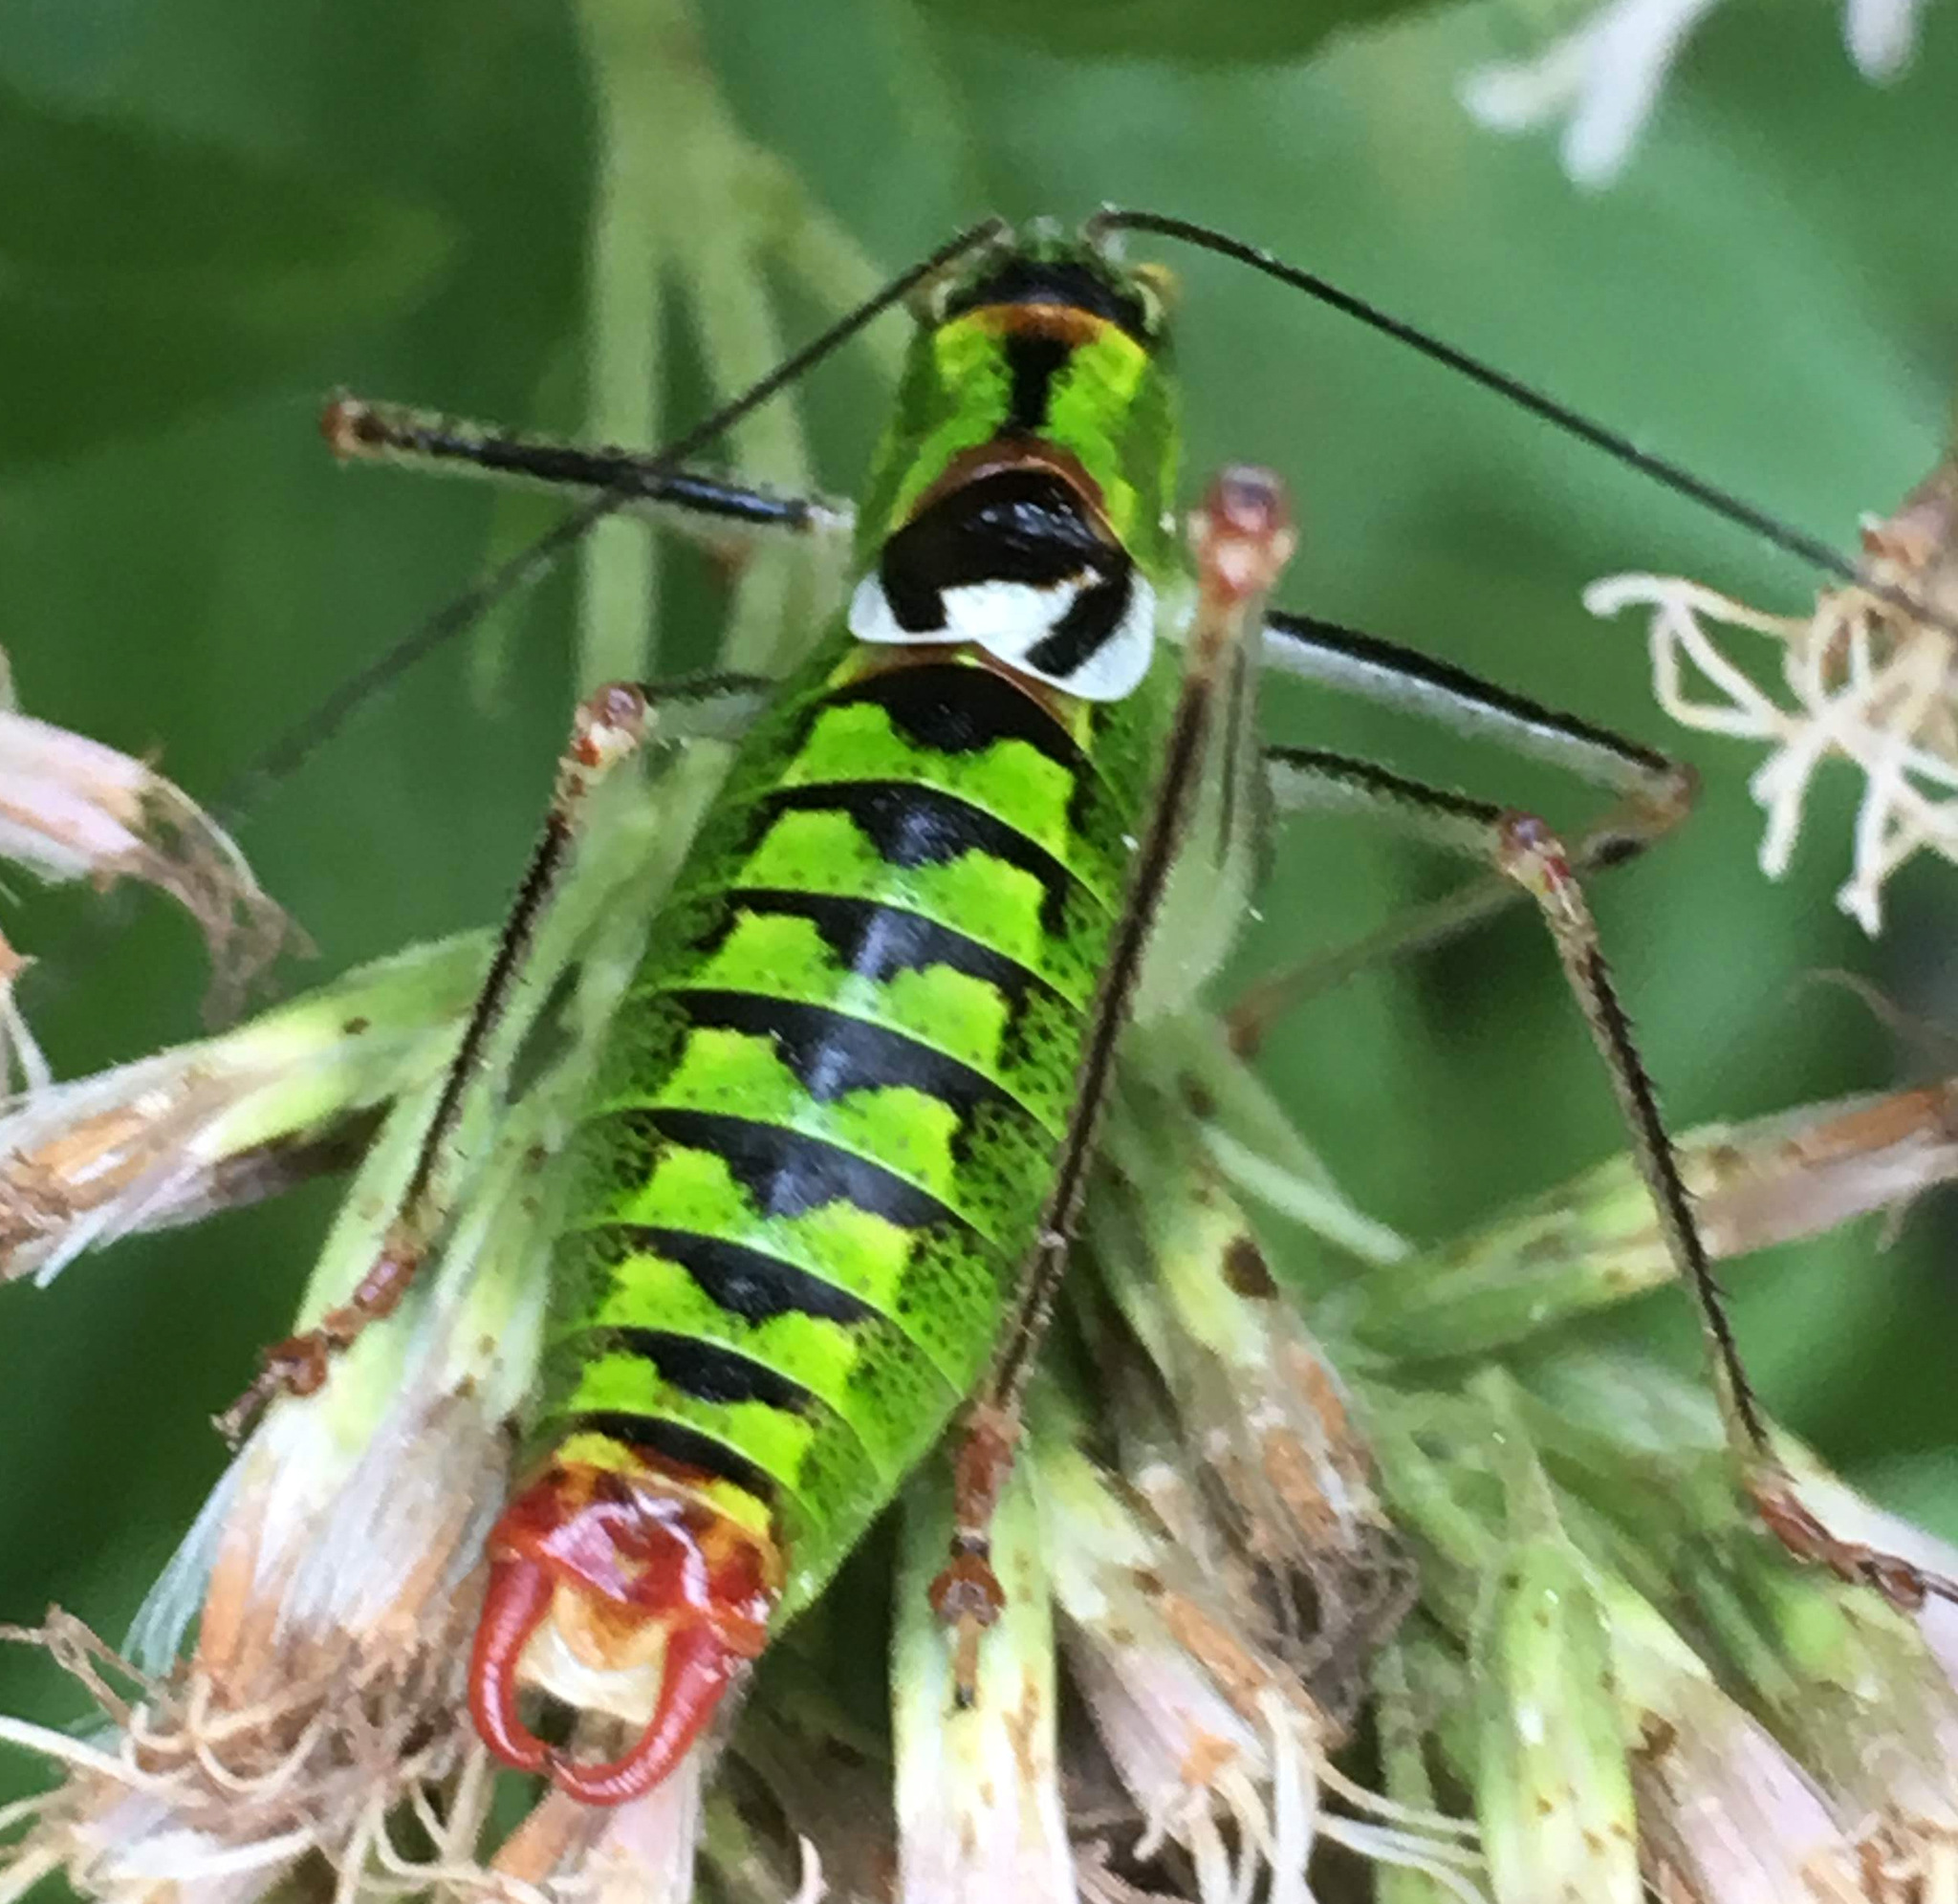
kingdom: Animalia
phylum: Arthropoda
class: Insecta
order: Orthoptera
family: Tettigoniidae
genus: Poecilimon
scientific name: Poecilimon thoracicus
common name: Bellied bright bush-cricket
